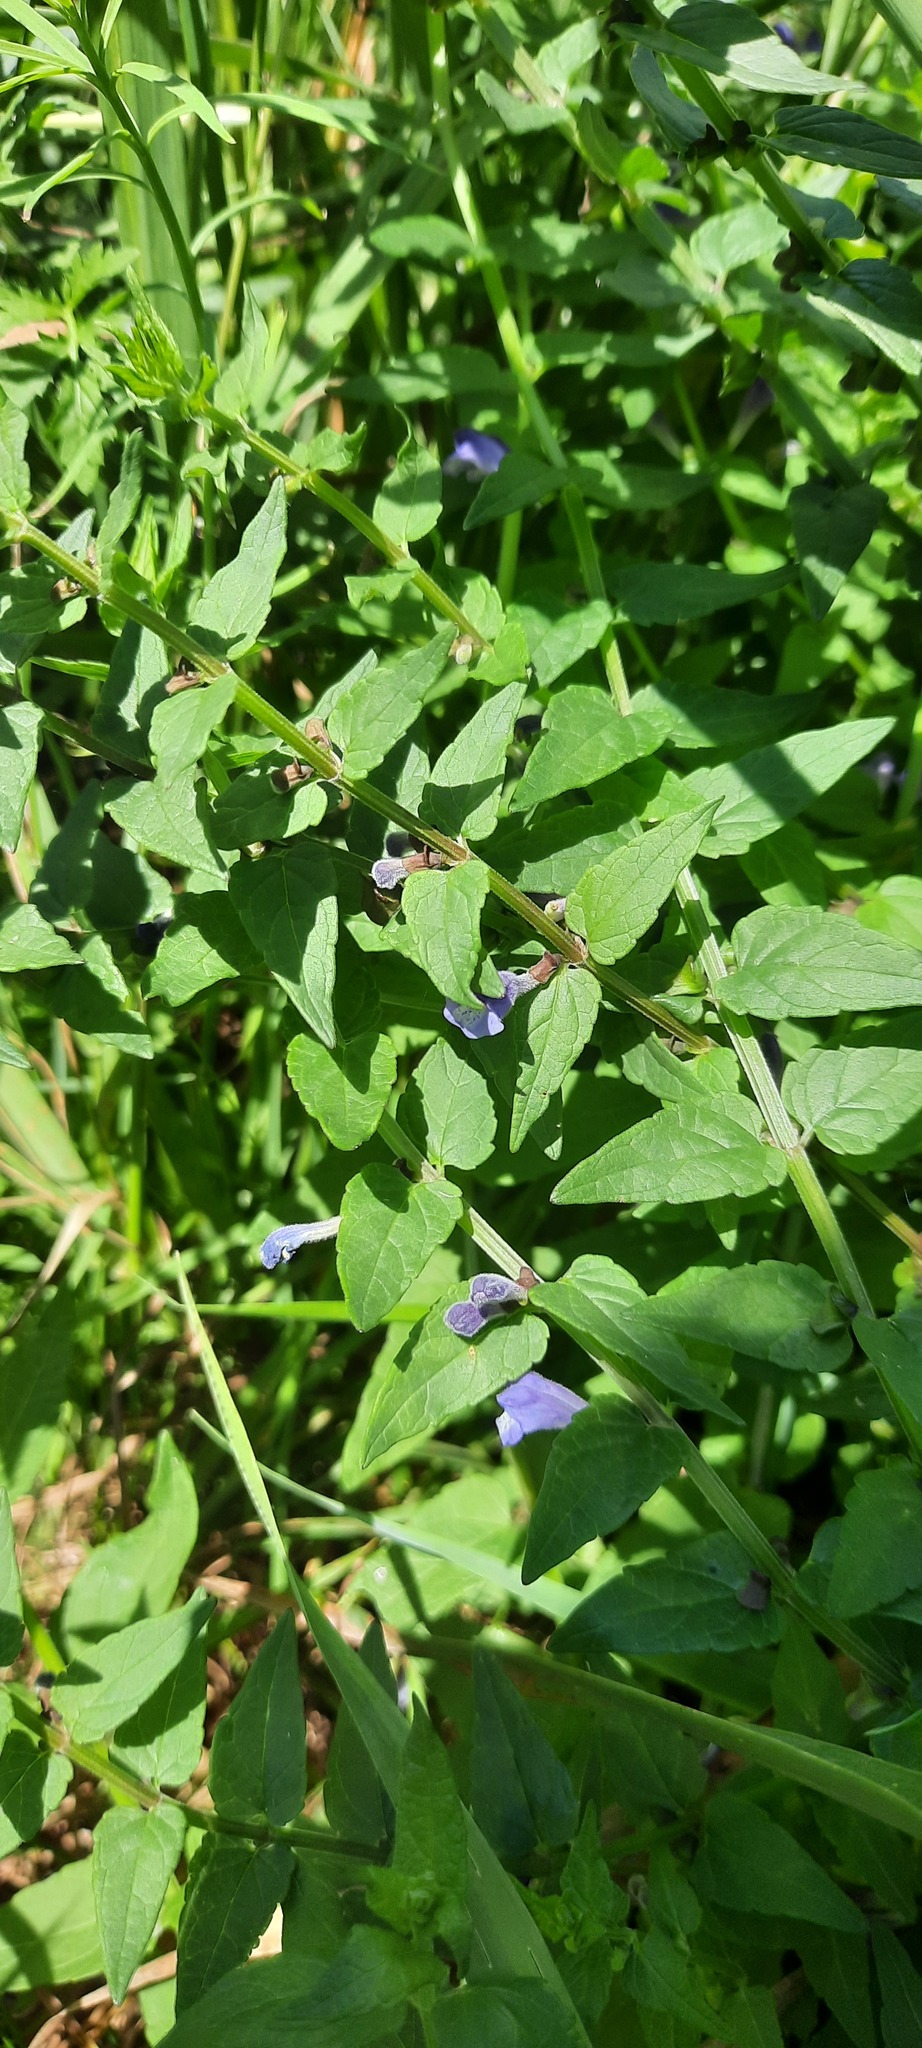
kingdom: Plantae
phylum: Tracheophyta
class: Magnoliopsida
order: Lamiales
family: Lamiaceae
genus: Scutellaria
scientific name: Scutellaria galericulata
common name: Skullcap
